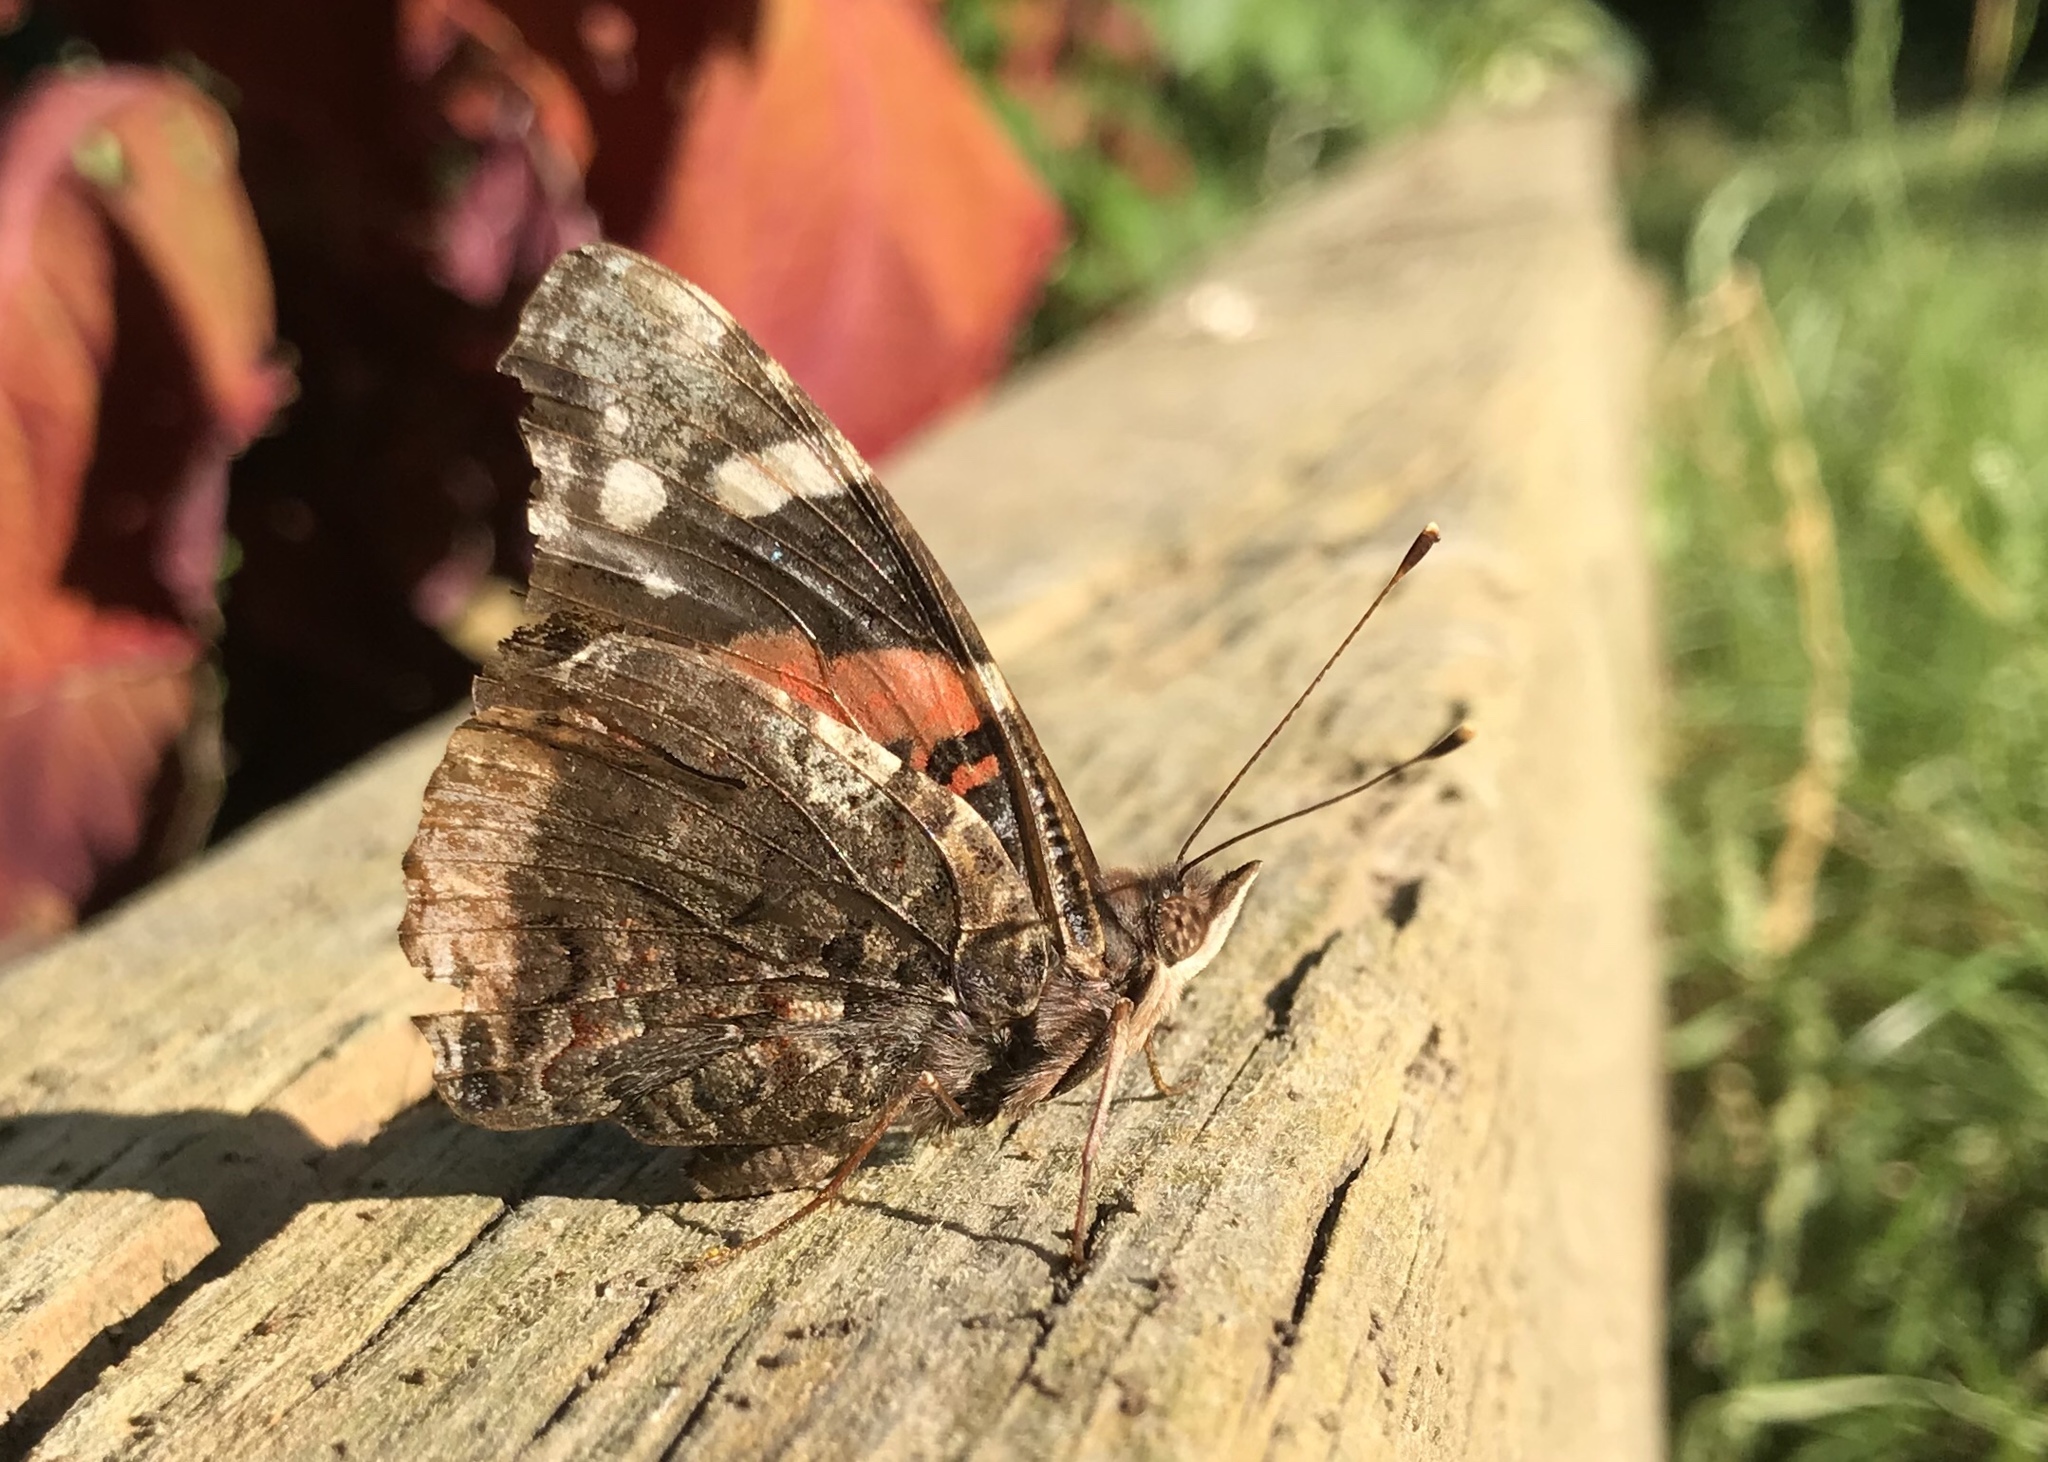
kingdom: Animalia
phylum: Arthropoda
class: Insecta
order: Lepidoptera
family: Nymphalidae
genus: Vanessa
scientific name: Vanessa atalanta
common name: Red admiral
